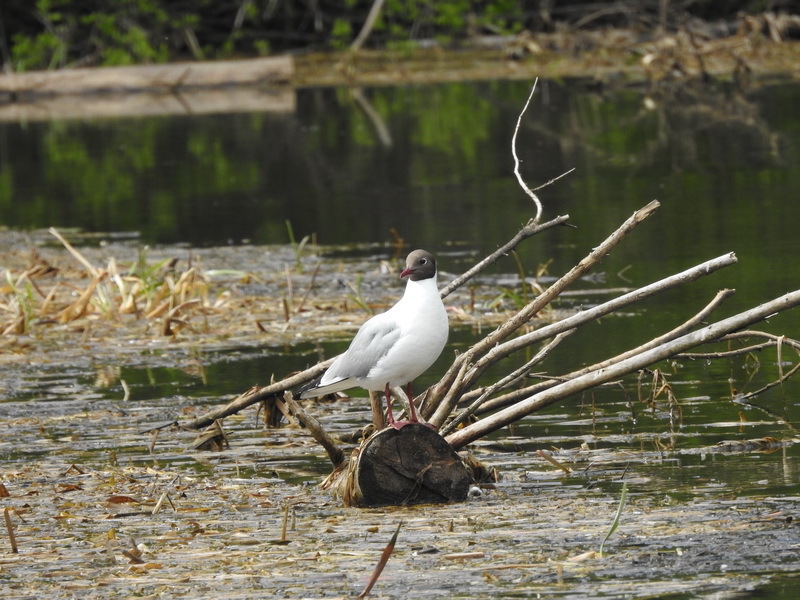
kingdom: Animalia
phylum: Chordata
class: Aves
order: Charadriiformes
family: Laridae
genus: Chroicocephalus
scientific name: Chroicocephalus ridibundus
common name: Black-headed gull
